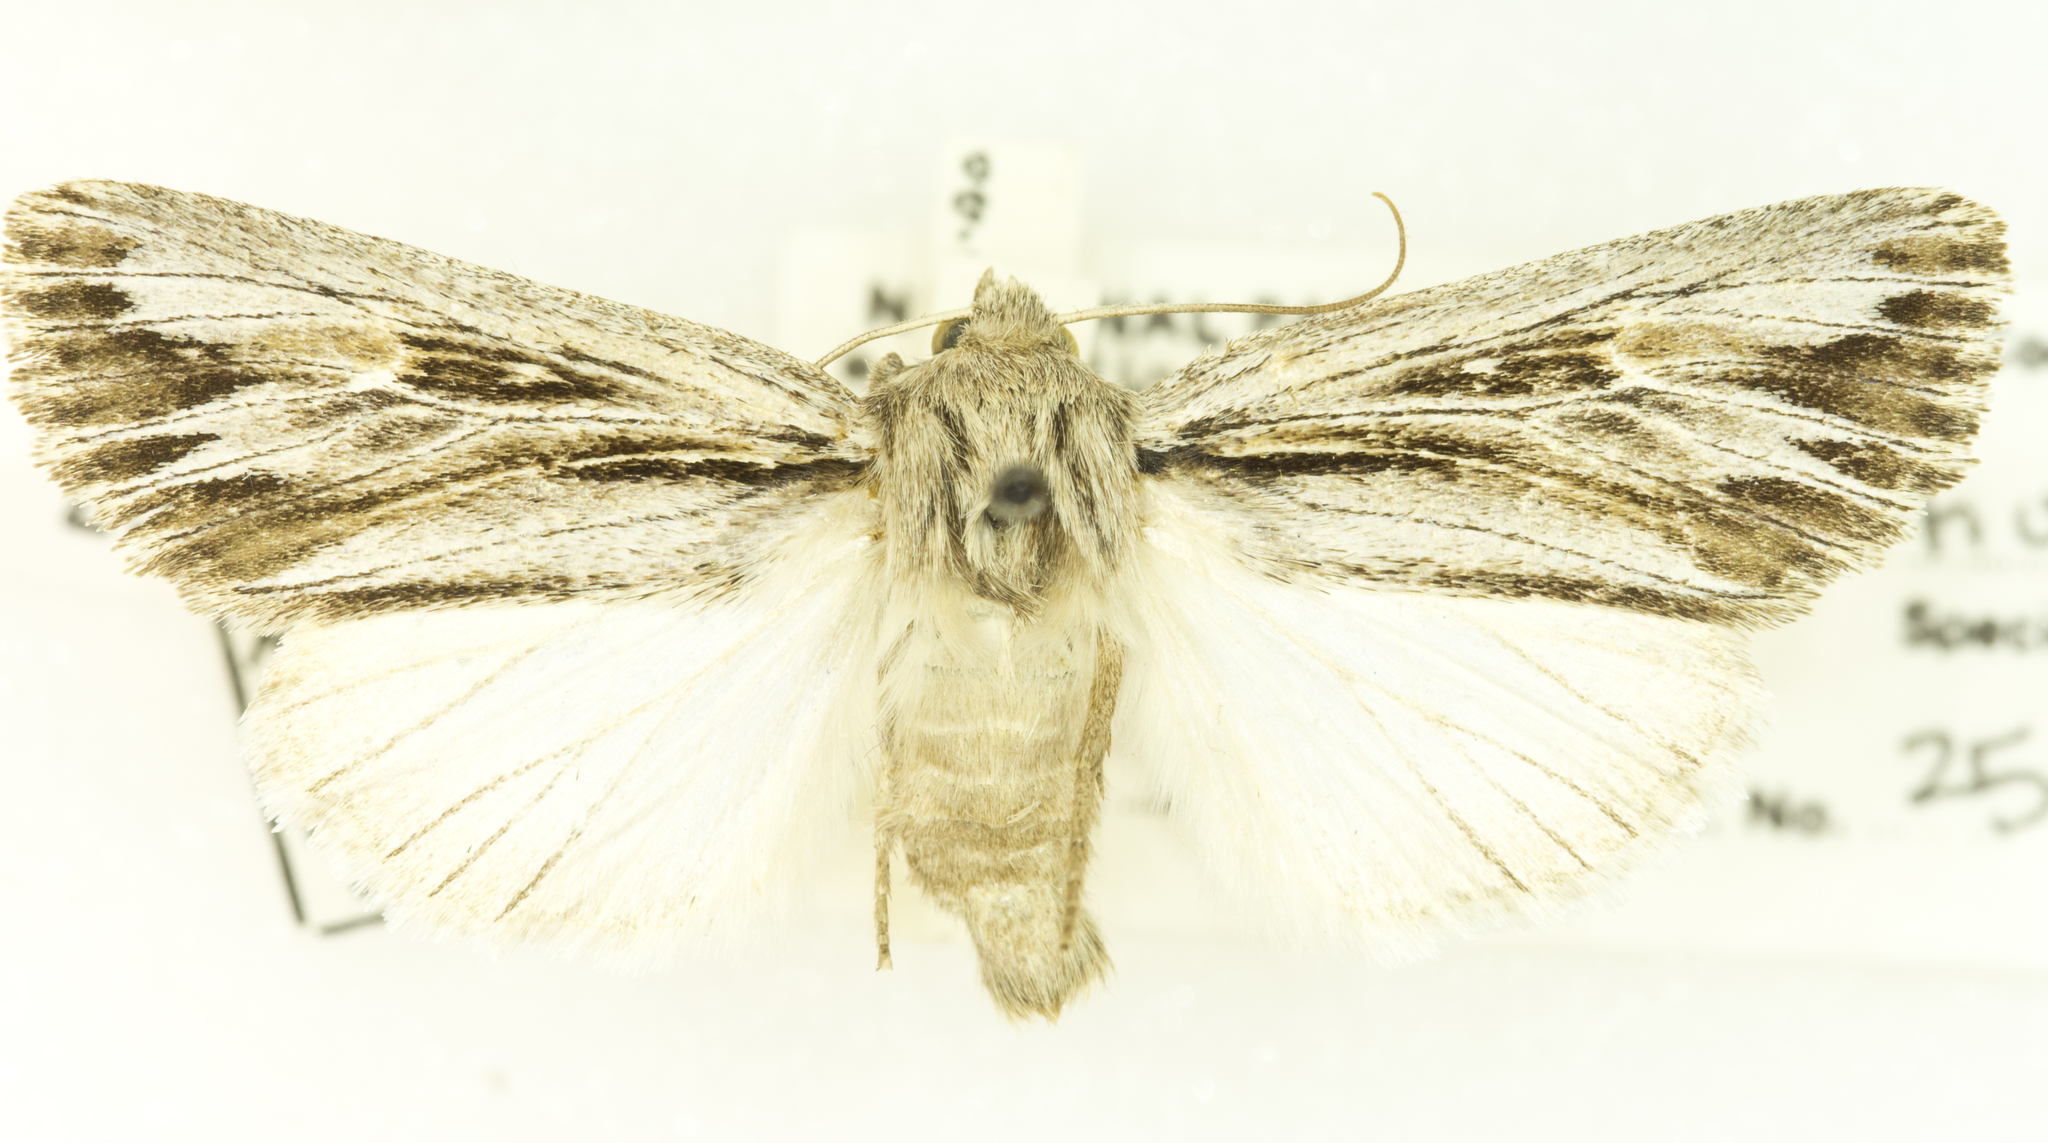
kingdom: Animalia
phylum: Arthropoda
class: Insecta
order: Lepidoptera
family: Noctuidae
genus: Rhizagrotis
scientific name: Rhizagrotis cloanthoides
